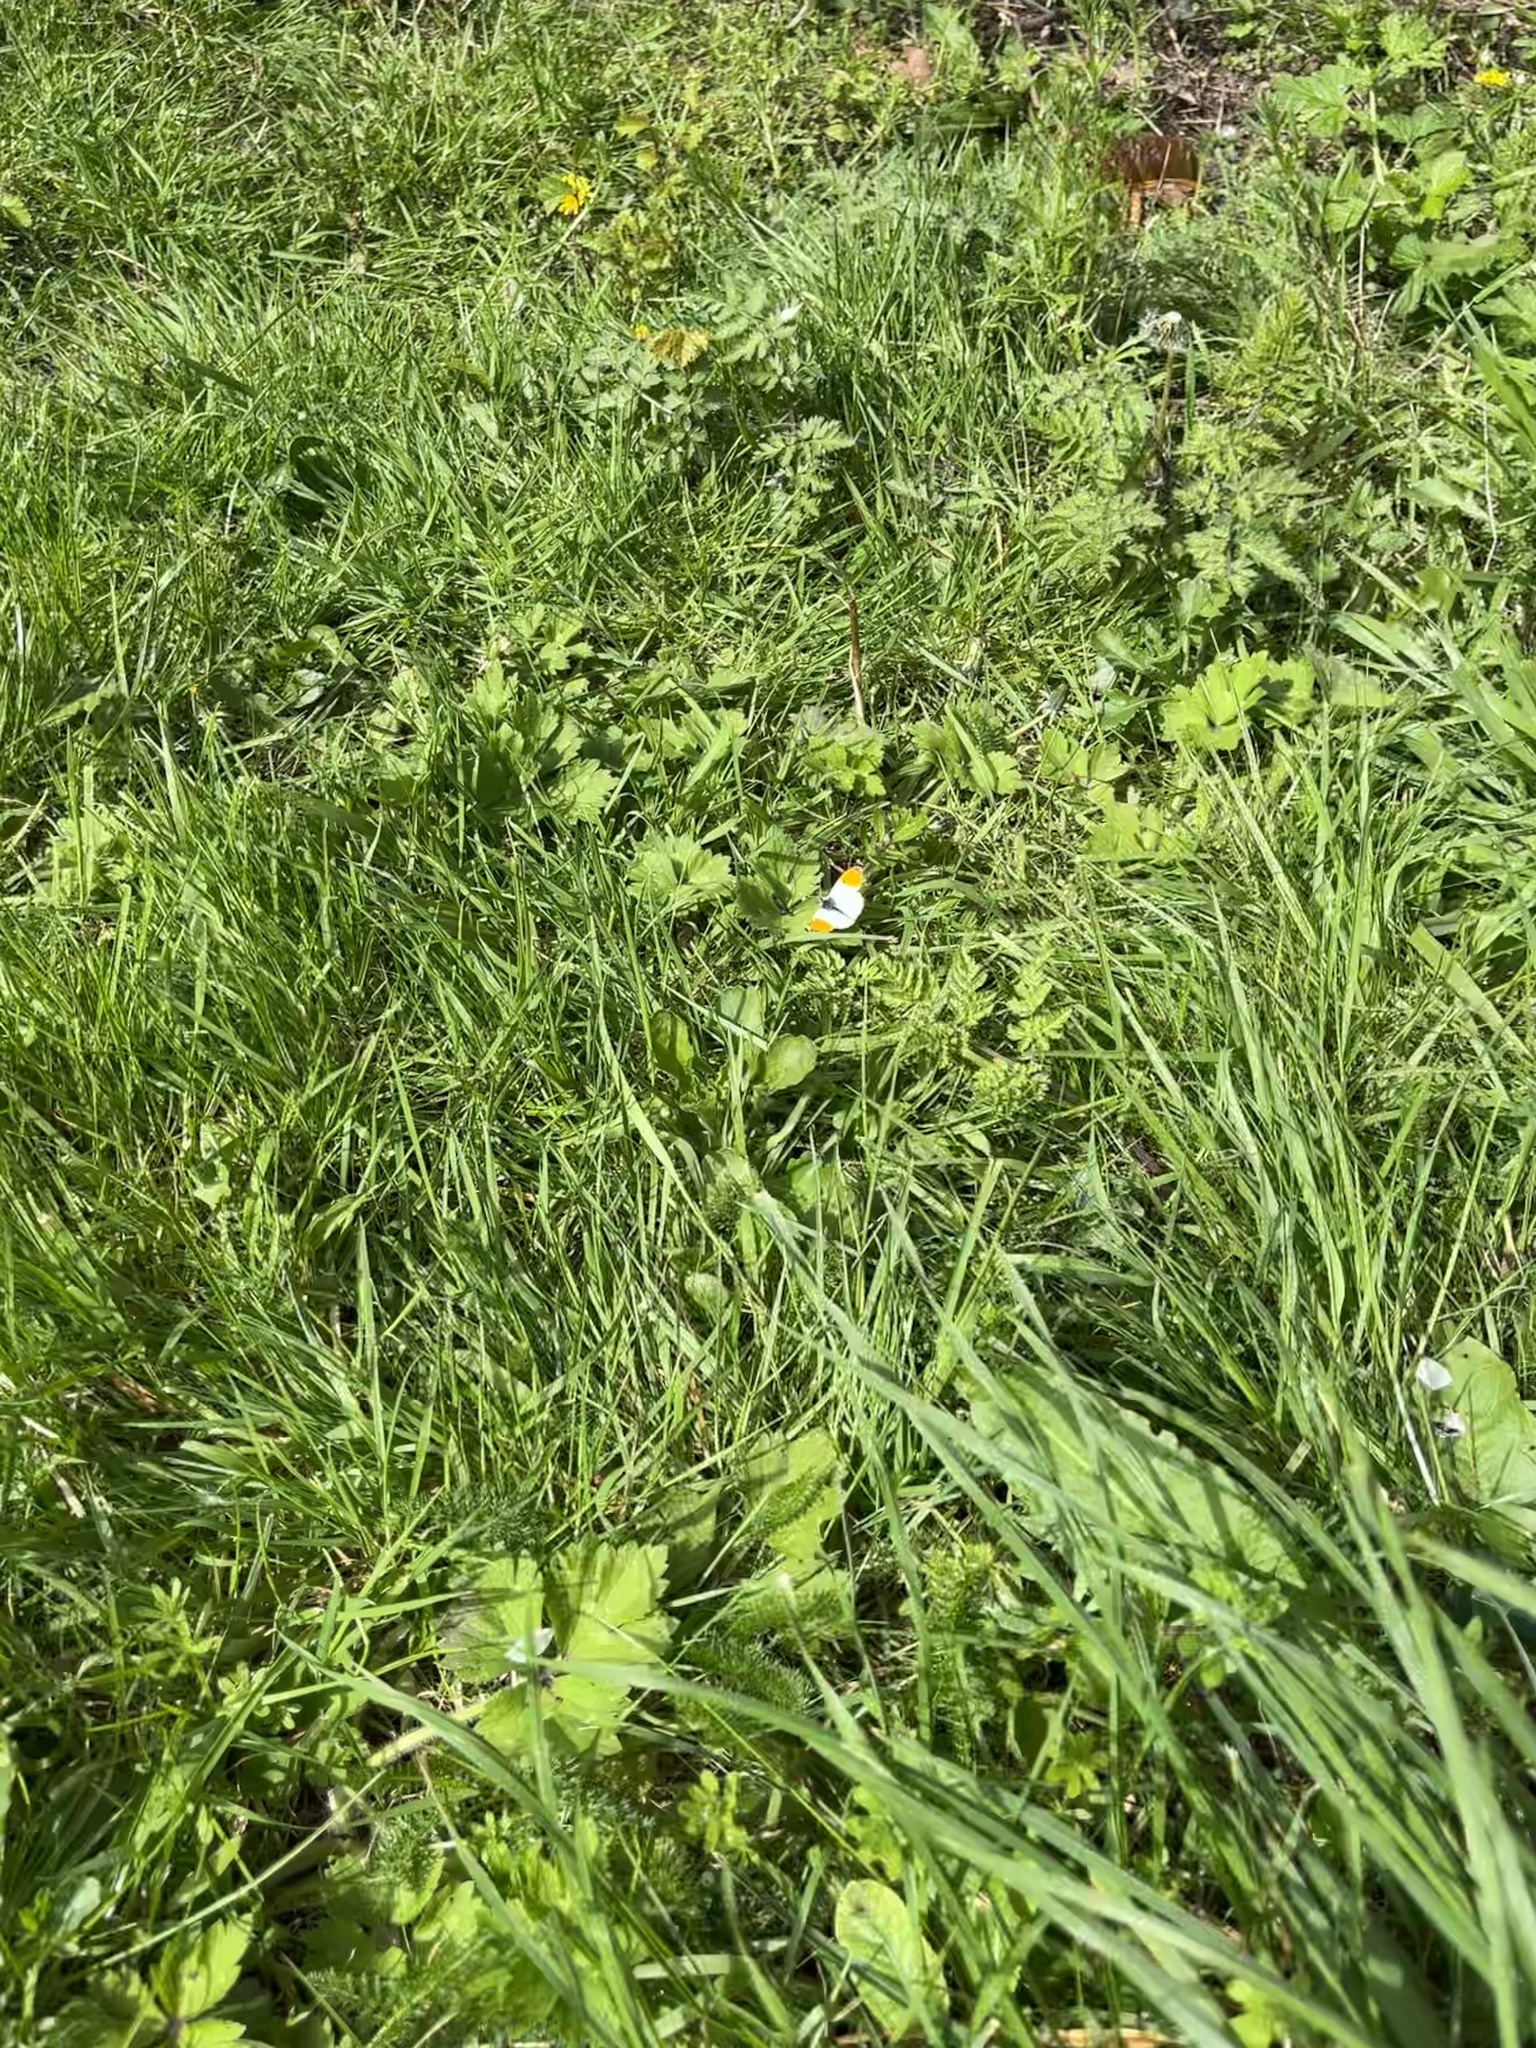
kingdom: Animalia
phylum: Arthropoda
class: Insecta
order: Lepidoptera
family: Pieridae
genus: Anthocharis
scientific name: Anthocharis cardamines
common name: Orange-tip
